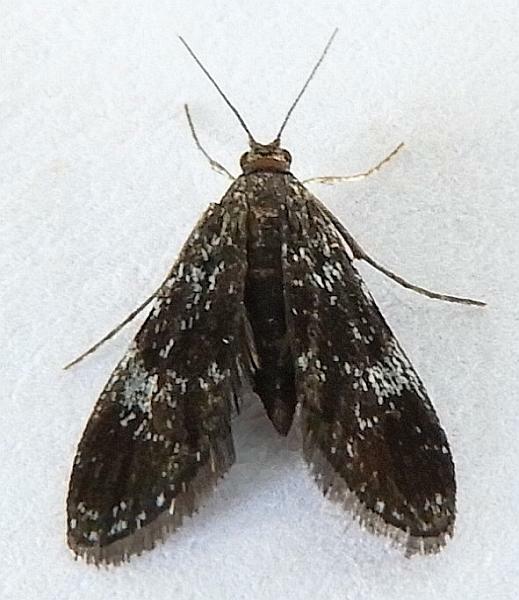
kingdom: Animalia
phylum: Arthropoda
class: Insecta
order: Lepidoptera
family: Crambidae
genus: Elophila
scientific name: Elophila tinealis
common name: Black duckweed moth
